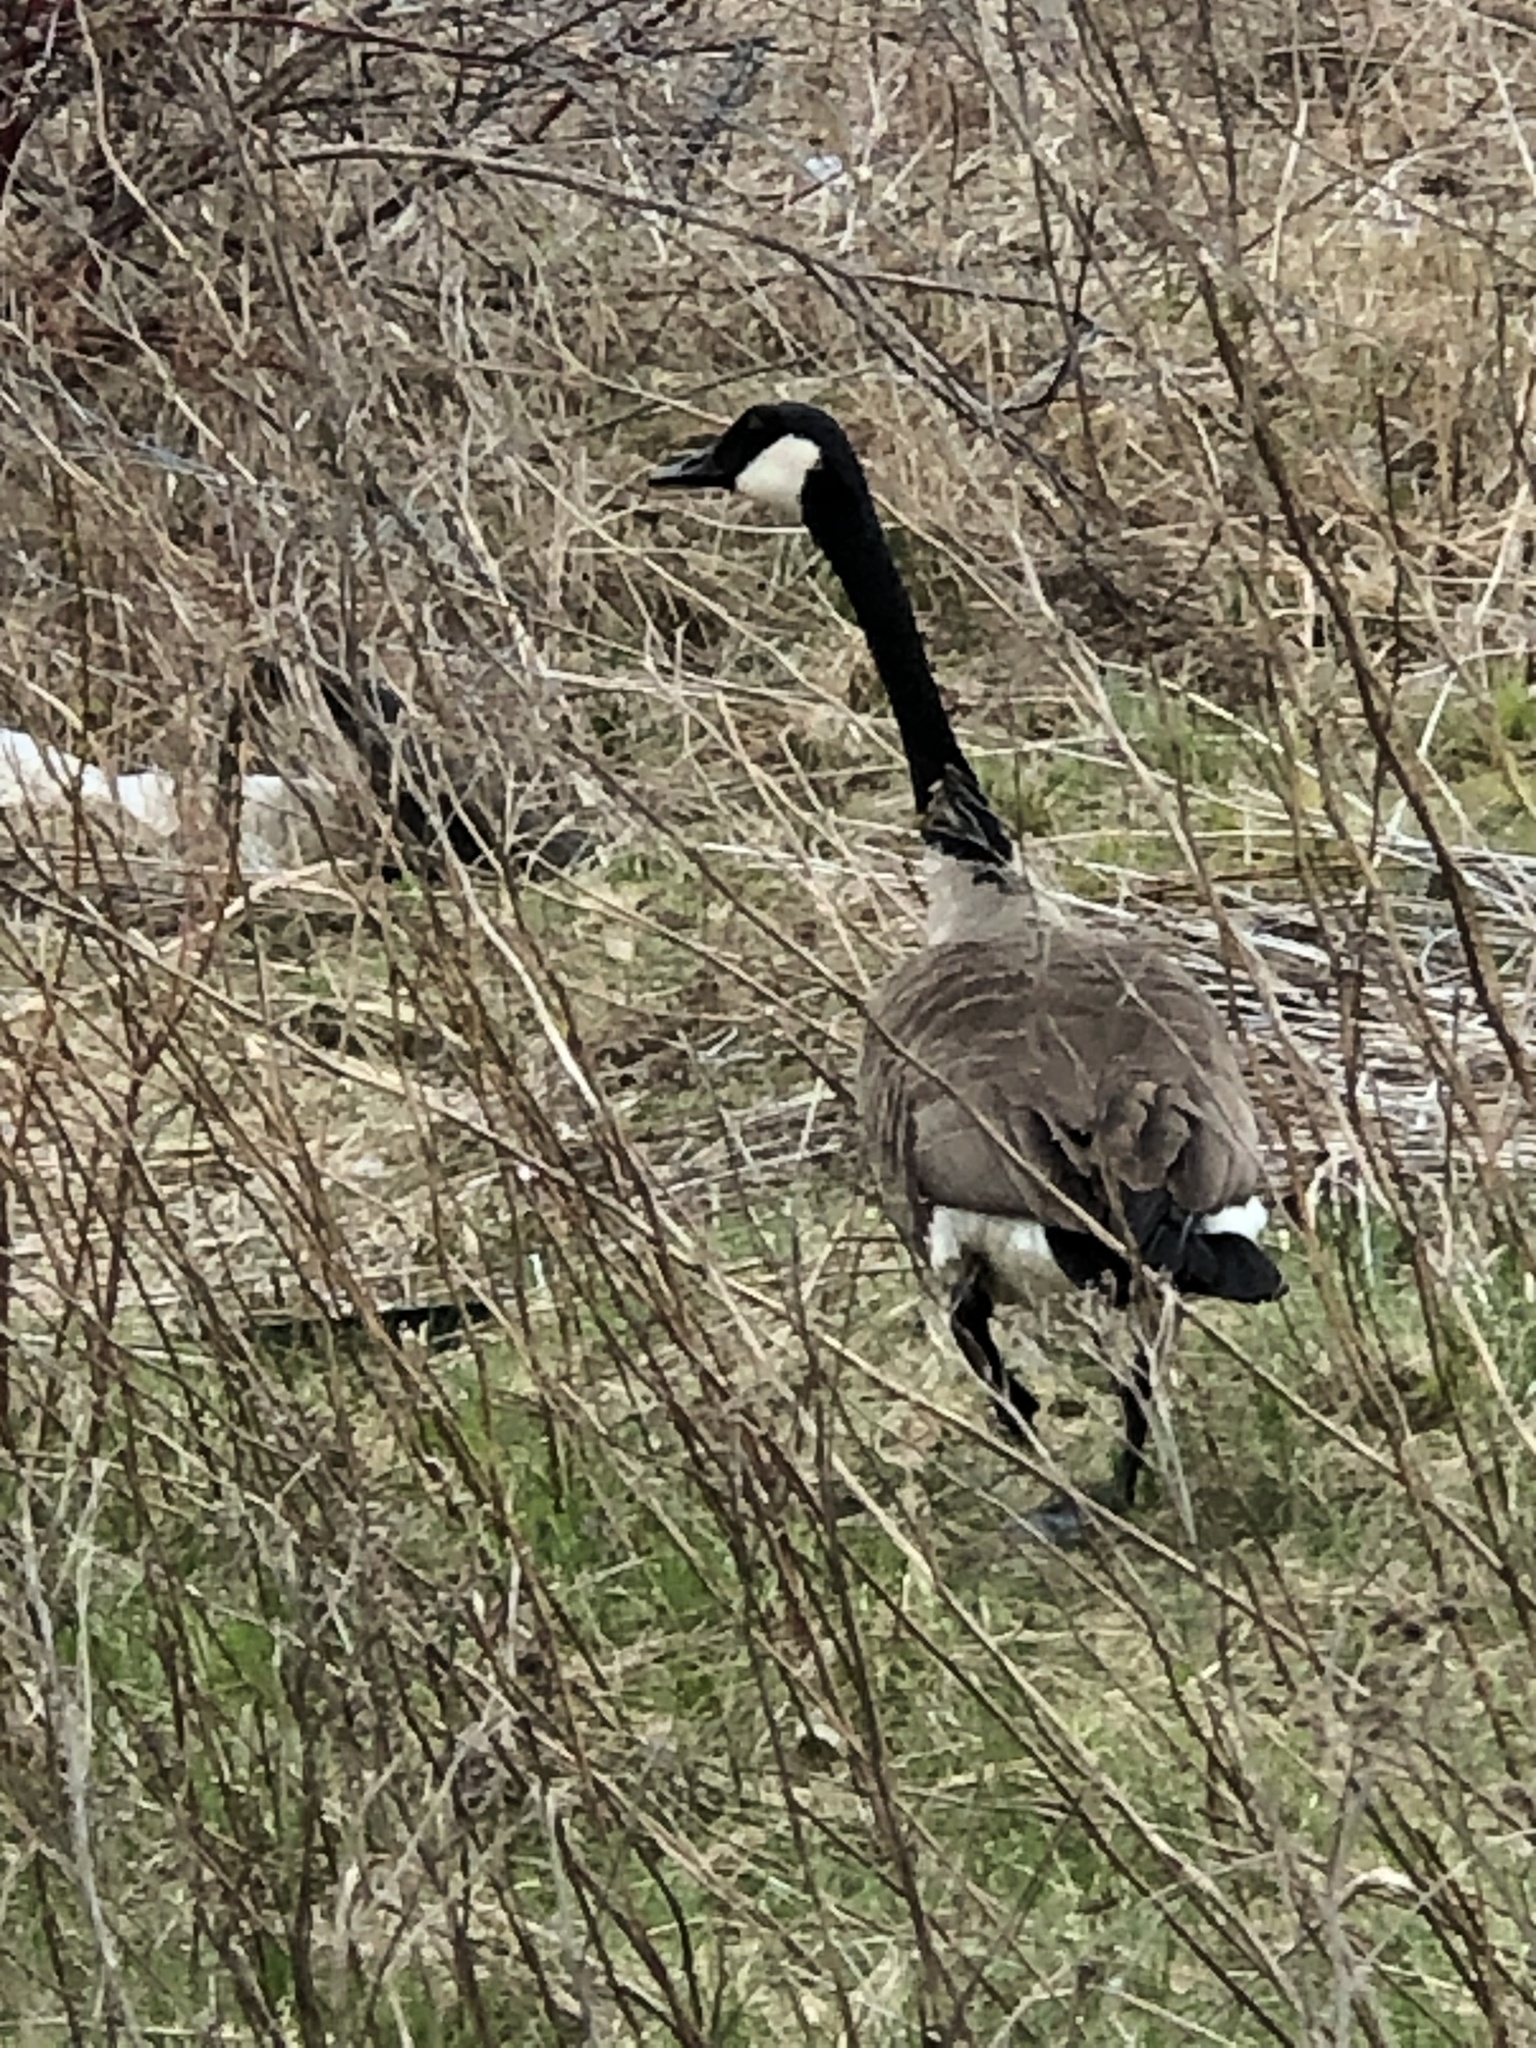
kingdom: Animalia
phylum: Chordata
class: Aves
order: Anseriformes
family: Anatidae
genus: Branta
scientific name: Branta canadensis
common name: Canada goose
